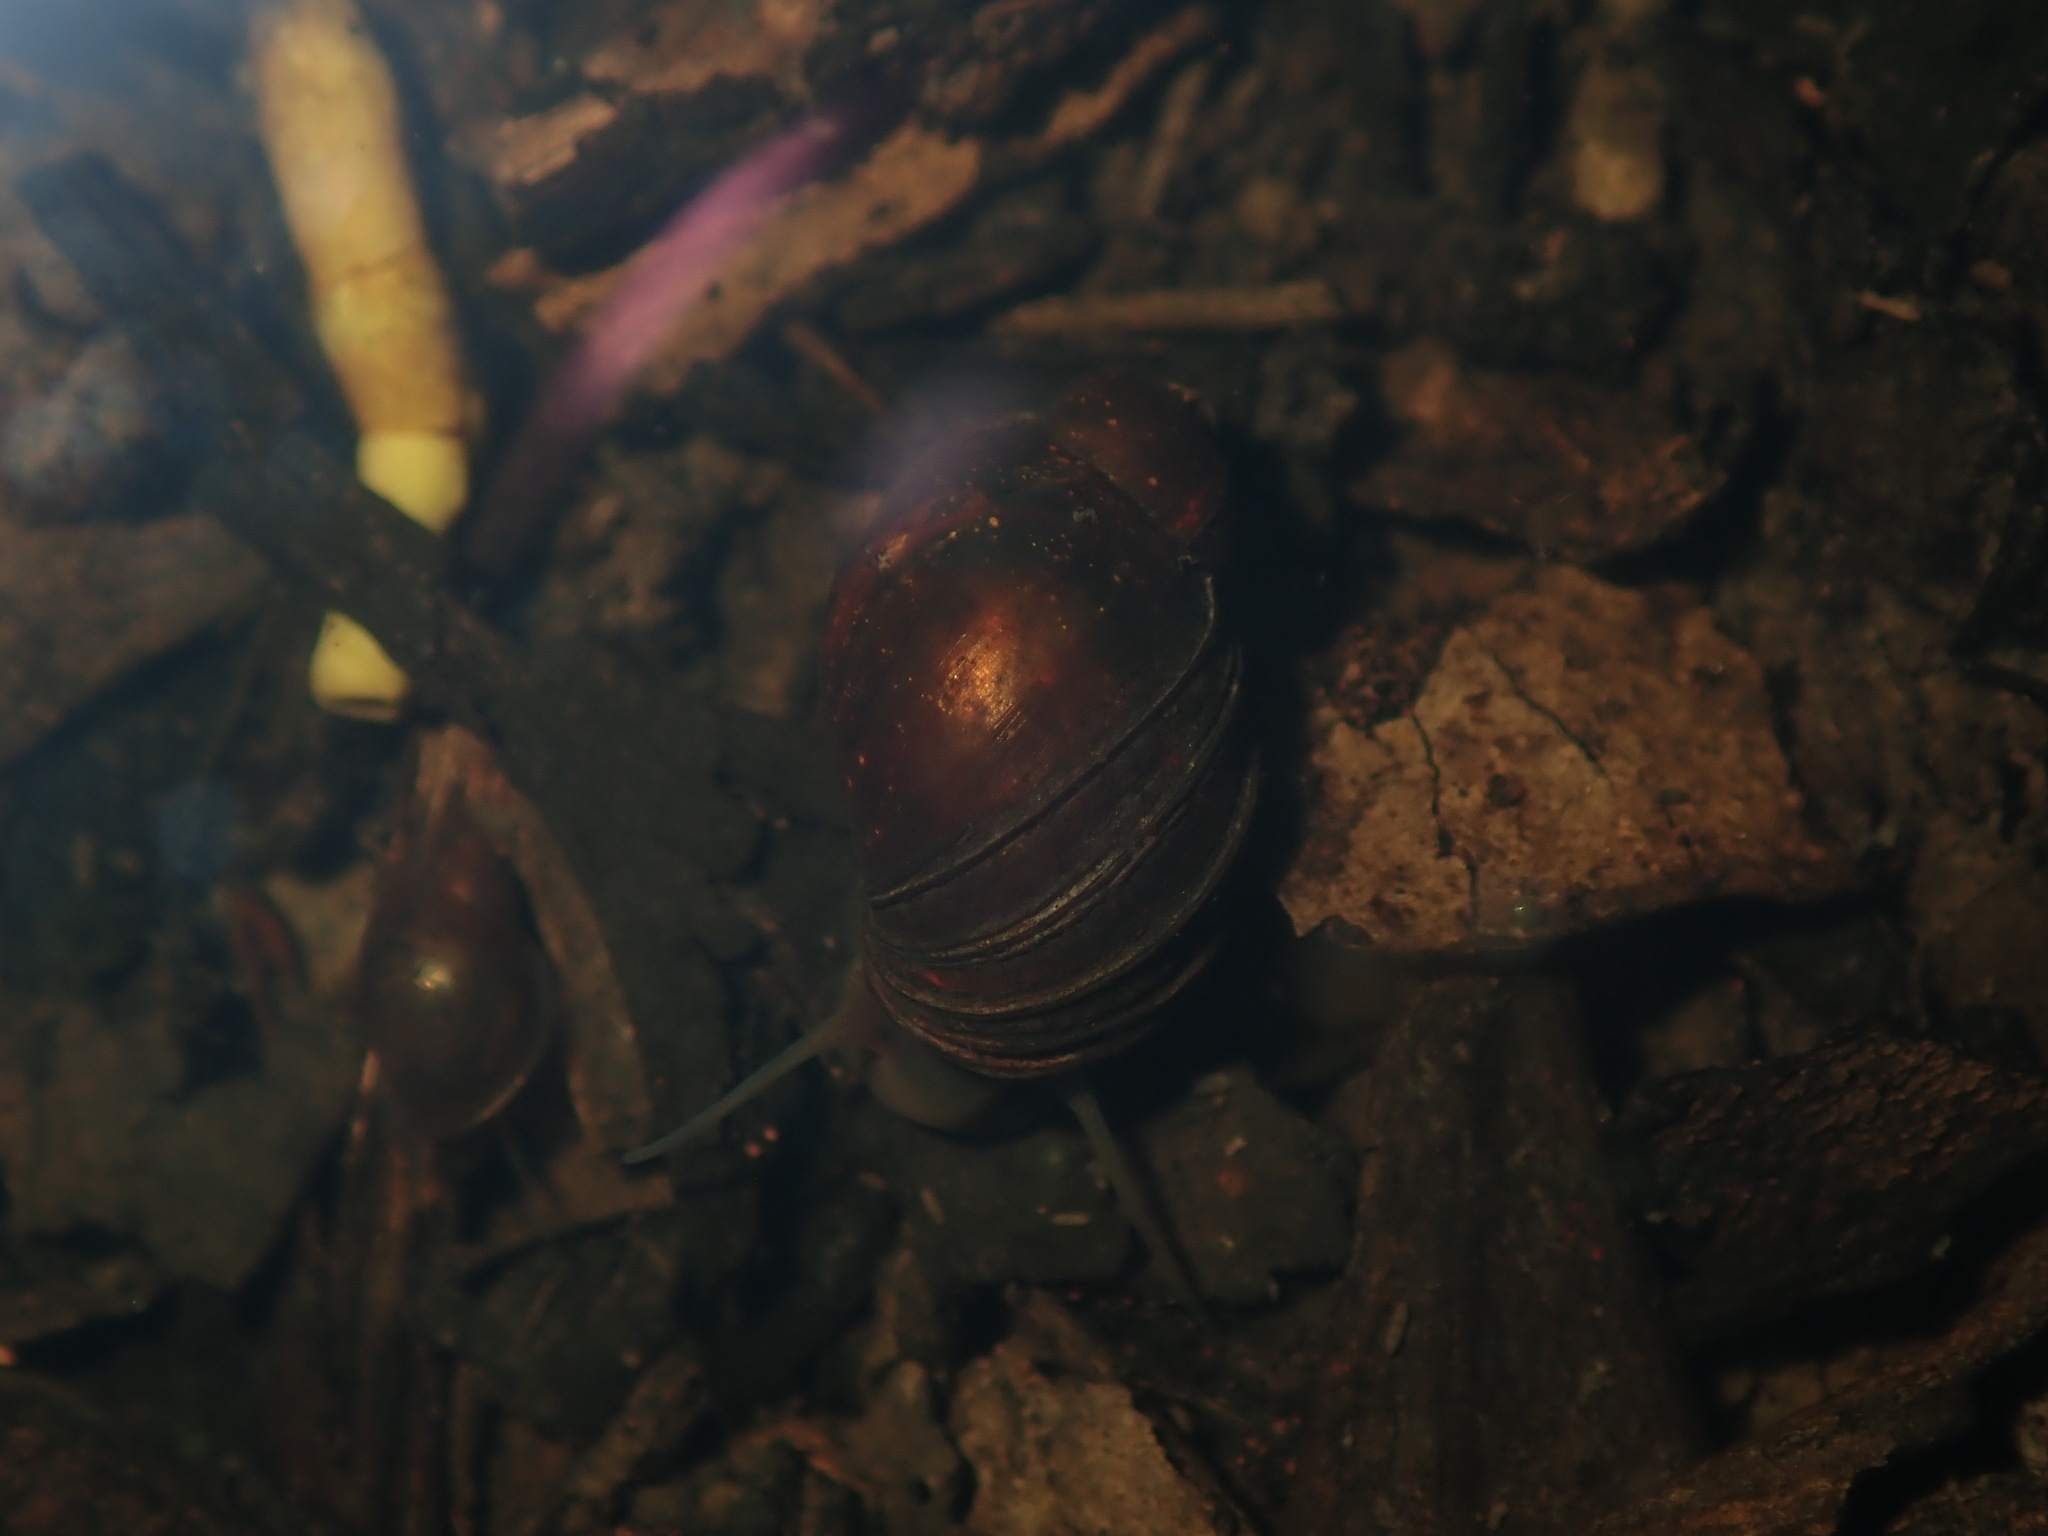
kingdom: Animalia
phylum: Mollusca
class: Gastropoda
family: Planorbidae
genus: Isidorella
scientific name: Isidorella hainesii
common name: Haine’s pouch snail
